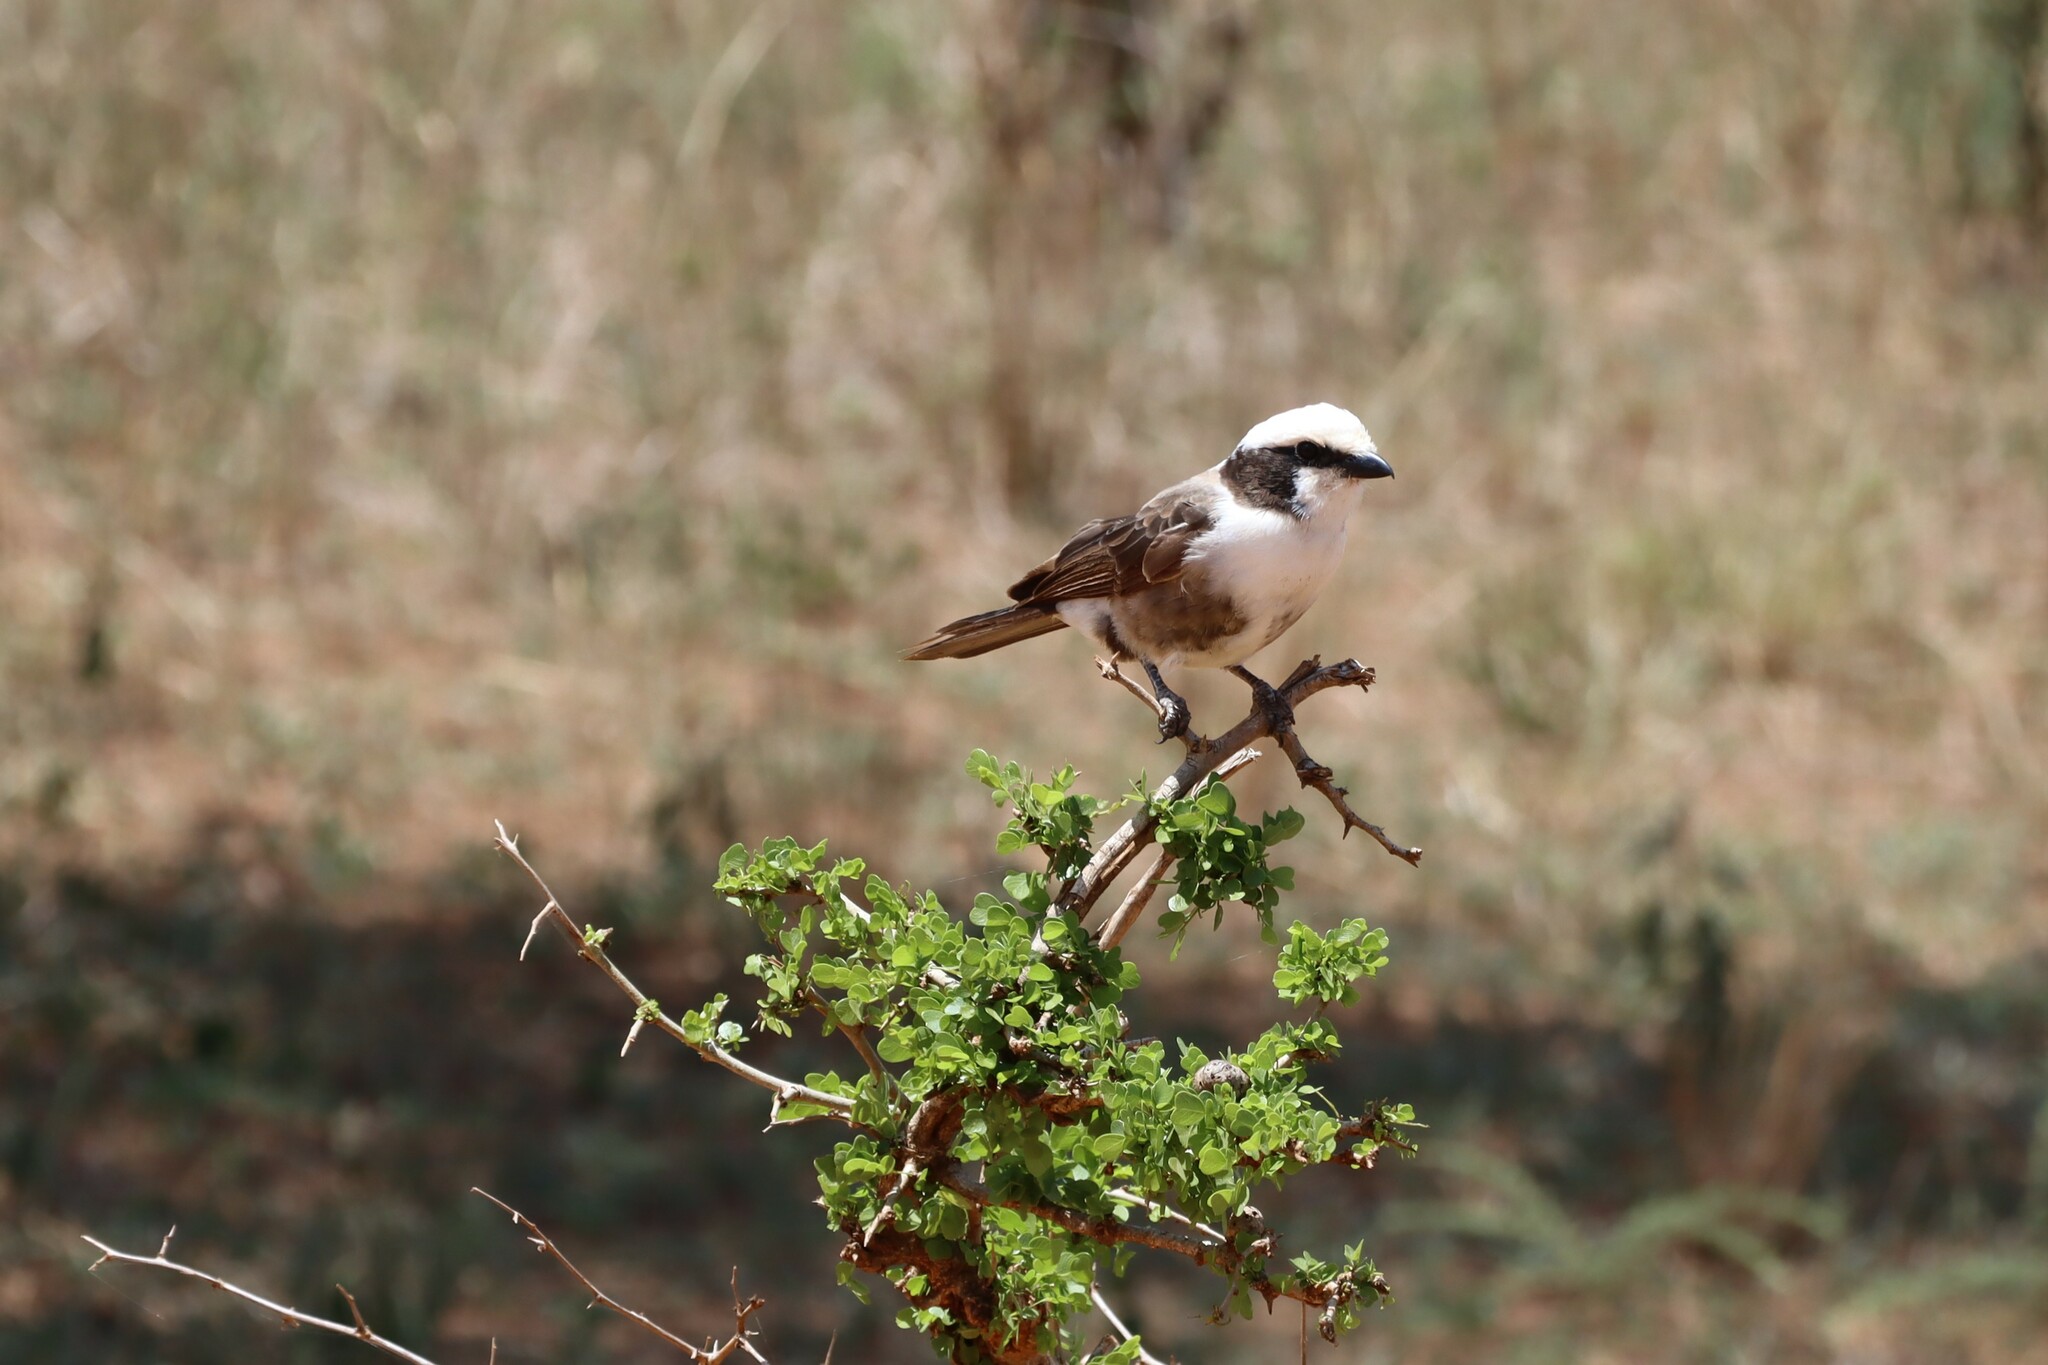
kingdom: Animalia
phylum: Chordata
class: Aves
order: Passeriformes
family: Laniidae
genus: Eurocephalus
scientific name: Eurocephalus ruppelli
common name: Northern white-crowned shrike
